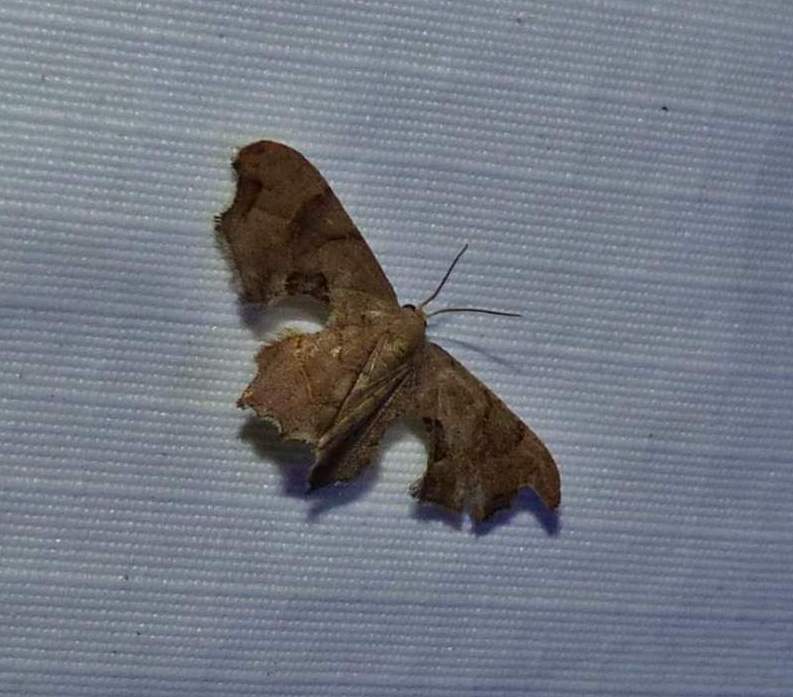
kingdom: Animalia
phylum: Arthropoda
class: Insecta
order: Lepidoptera
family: Uraniidae
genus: Epiplema
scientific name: Epiplema Calledapteryx dryopterata
